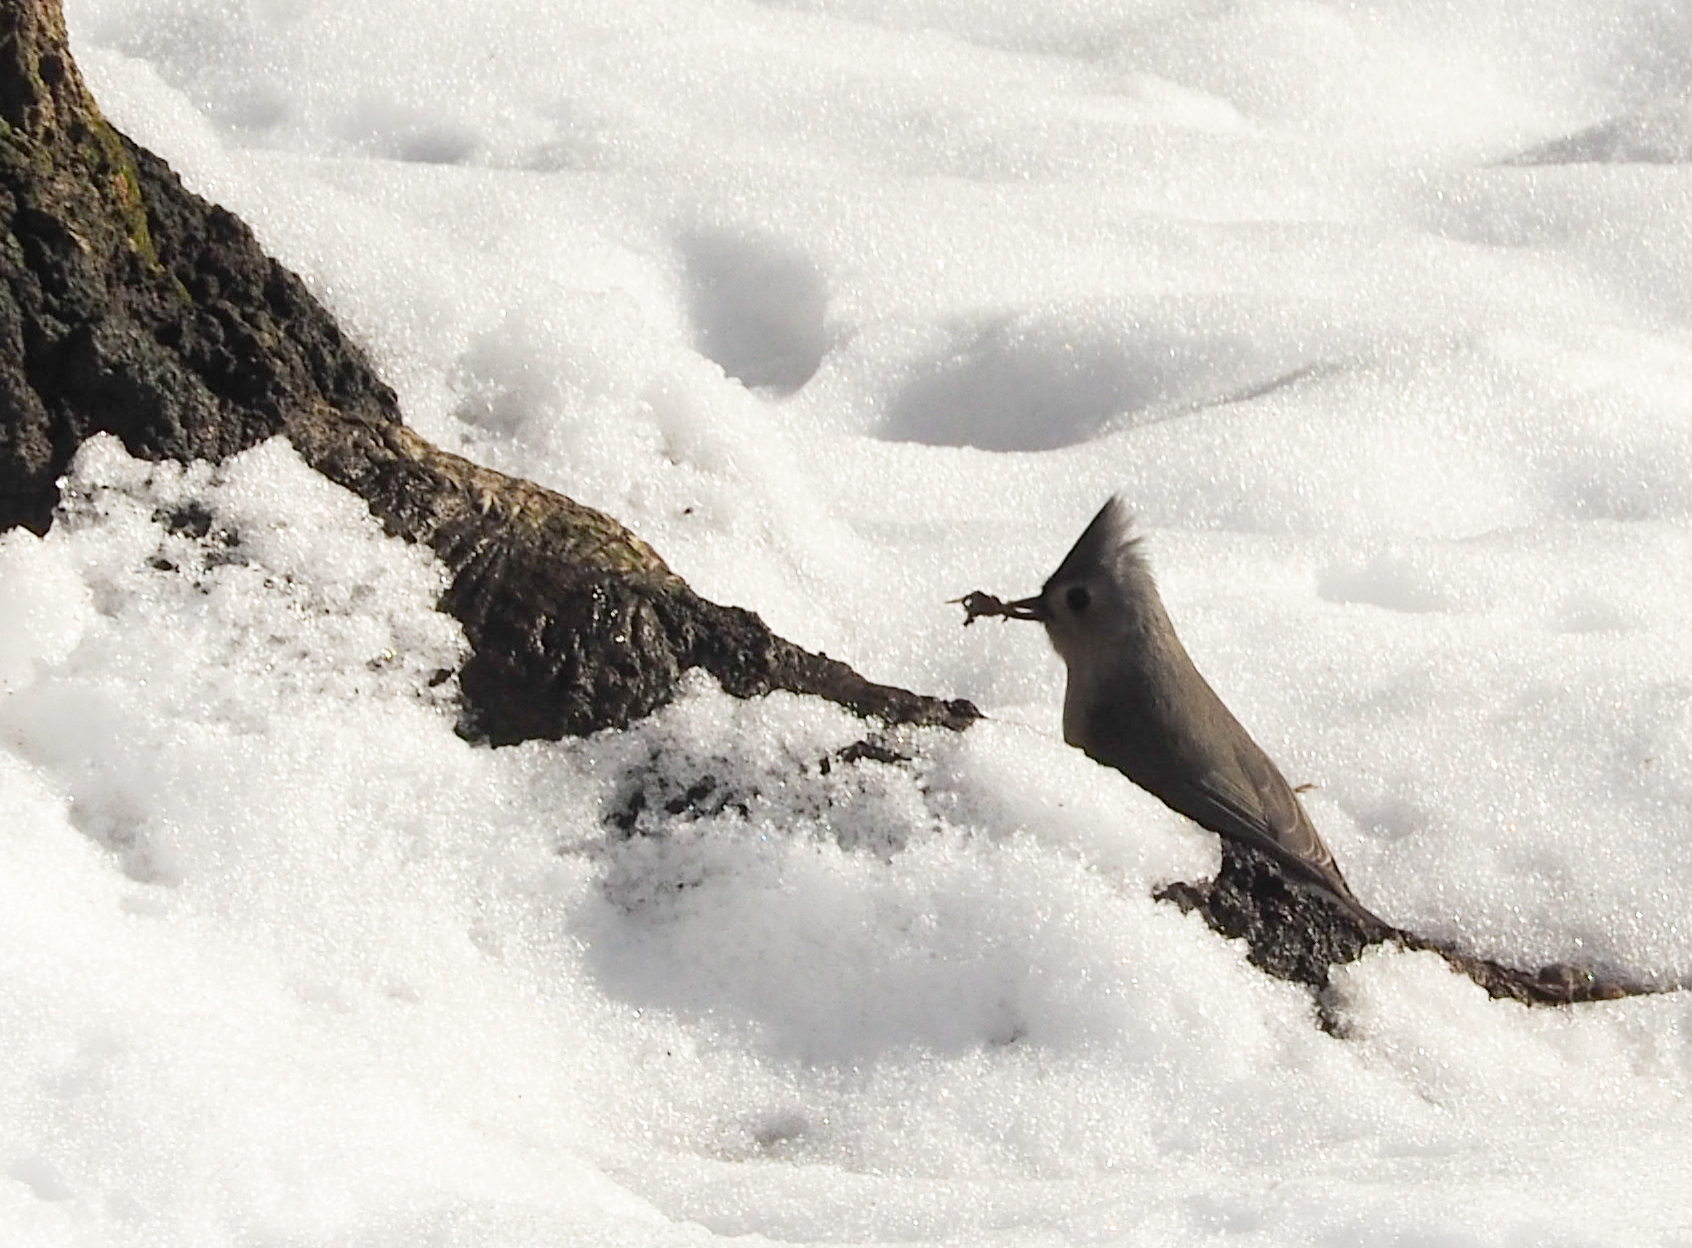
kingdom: Animalia
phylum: Chordata
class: Aves
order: Passeriformes
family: Paridae
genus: Baeolophus
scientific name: Baeolophus bicolor
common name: Tufted titmouse
